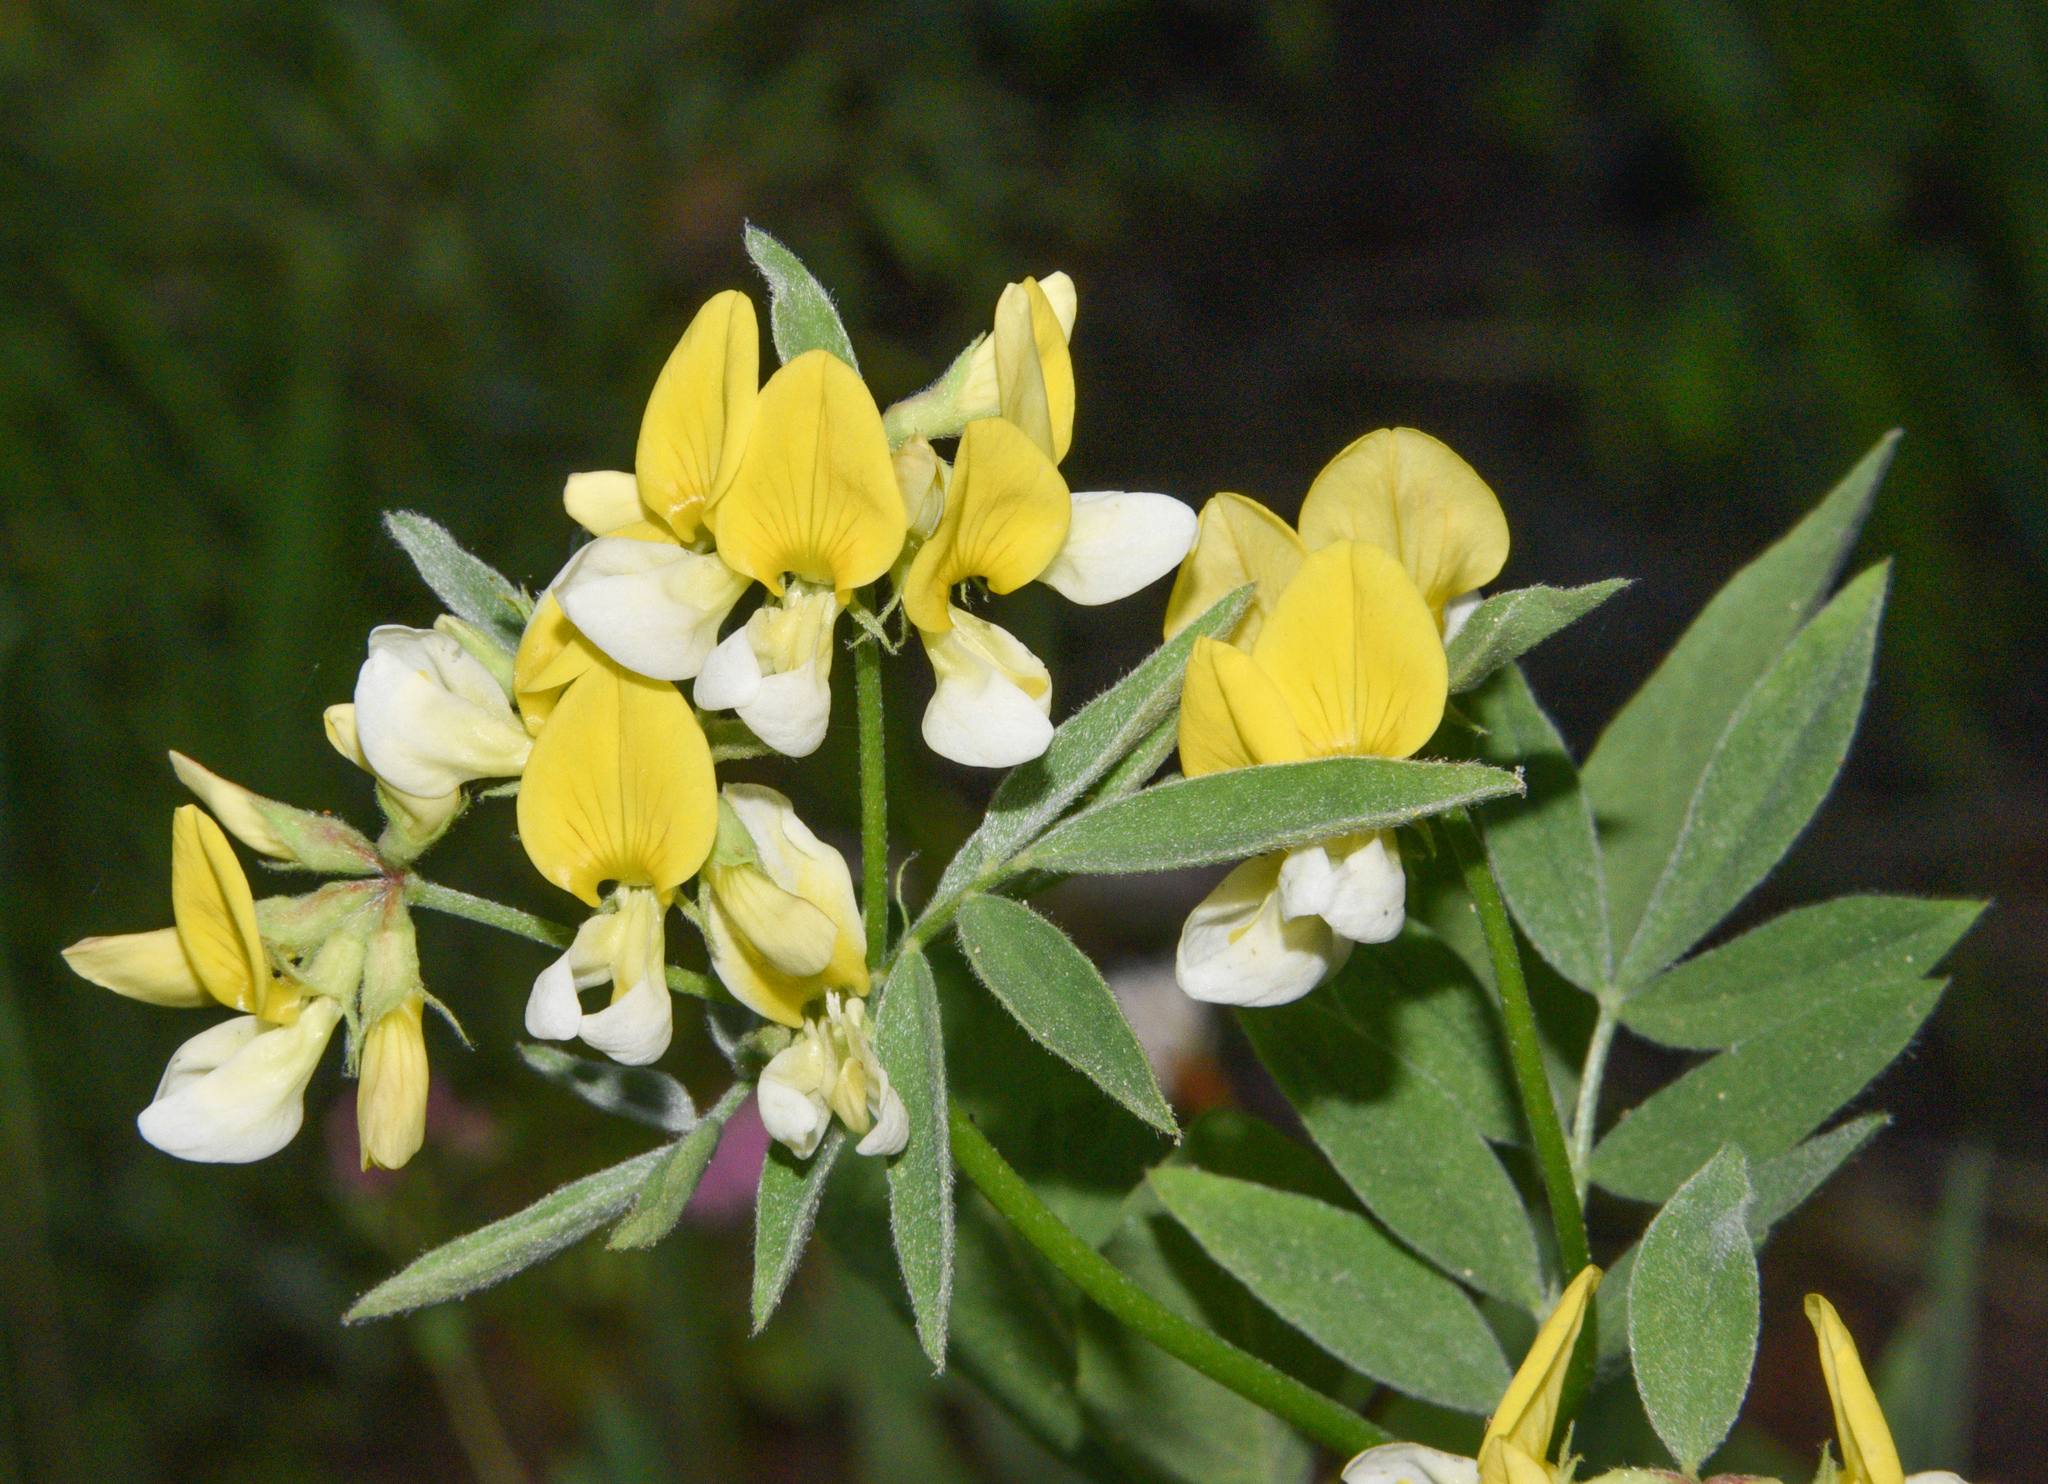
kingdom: Plantae
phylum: Tracheophyta
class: Magnoliopsida
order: Fabales
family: Fabaceae
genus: Hosackia
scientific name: Hosackia oblongifolia
